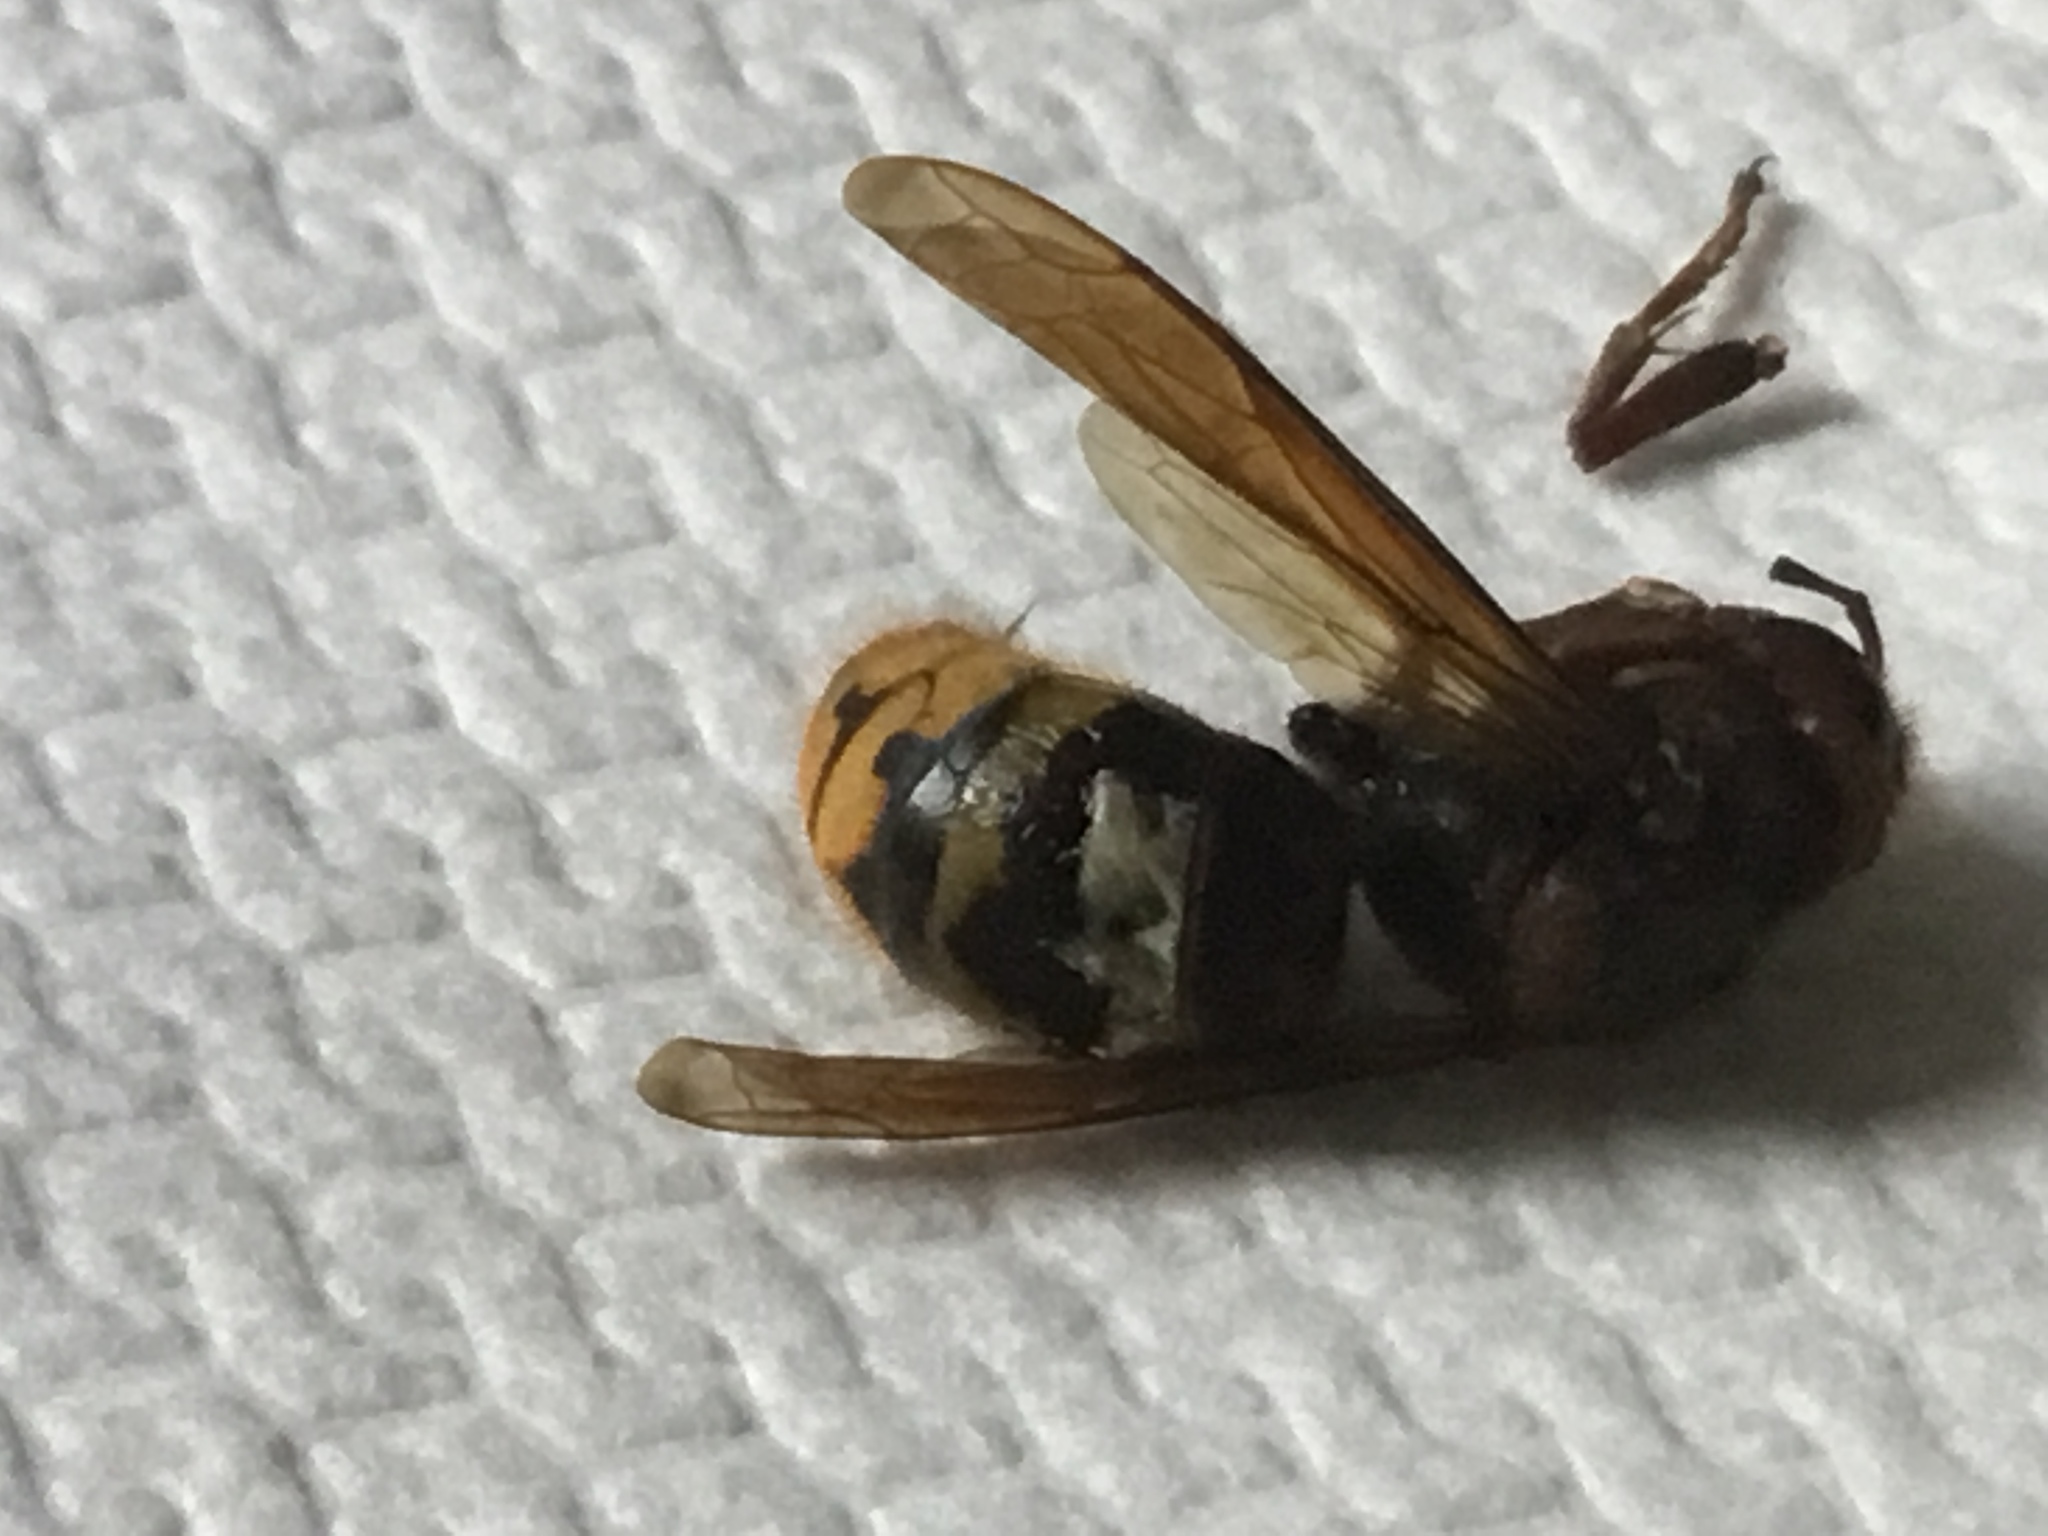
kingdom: Animalia
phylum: Arthropoda
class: Insecta
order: Hymenoptera
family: Vespidae
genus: Vespa
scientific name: Vespa crabro
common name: Hornet
